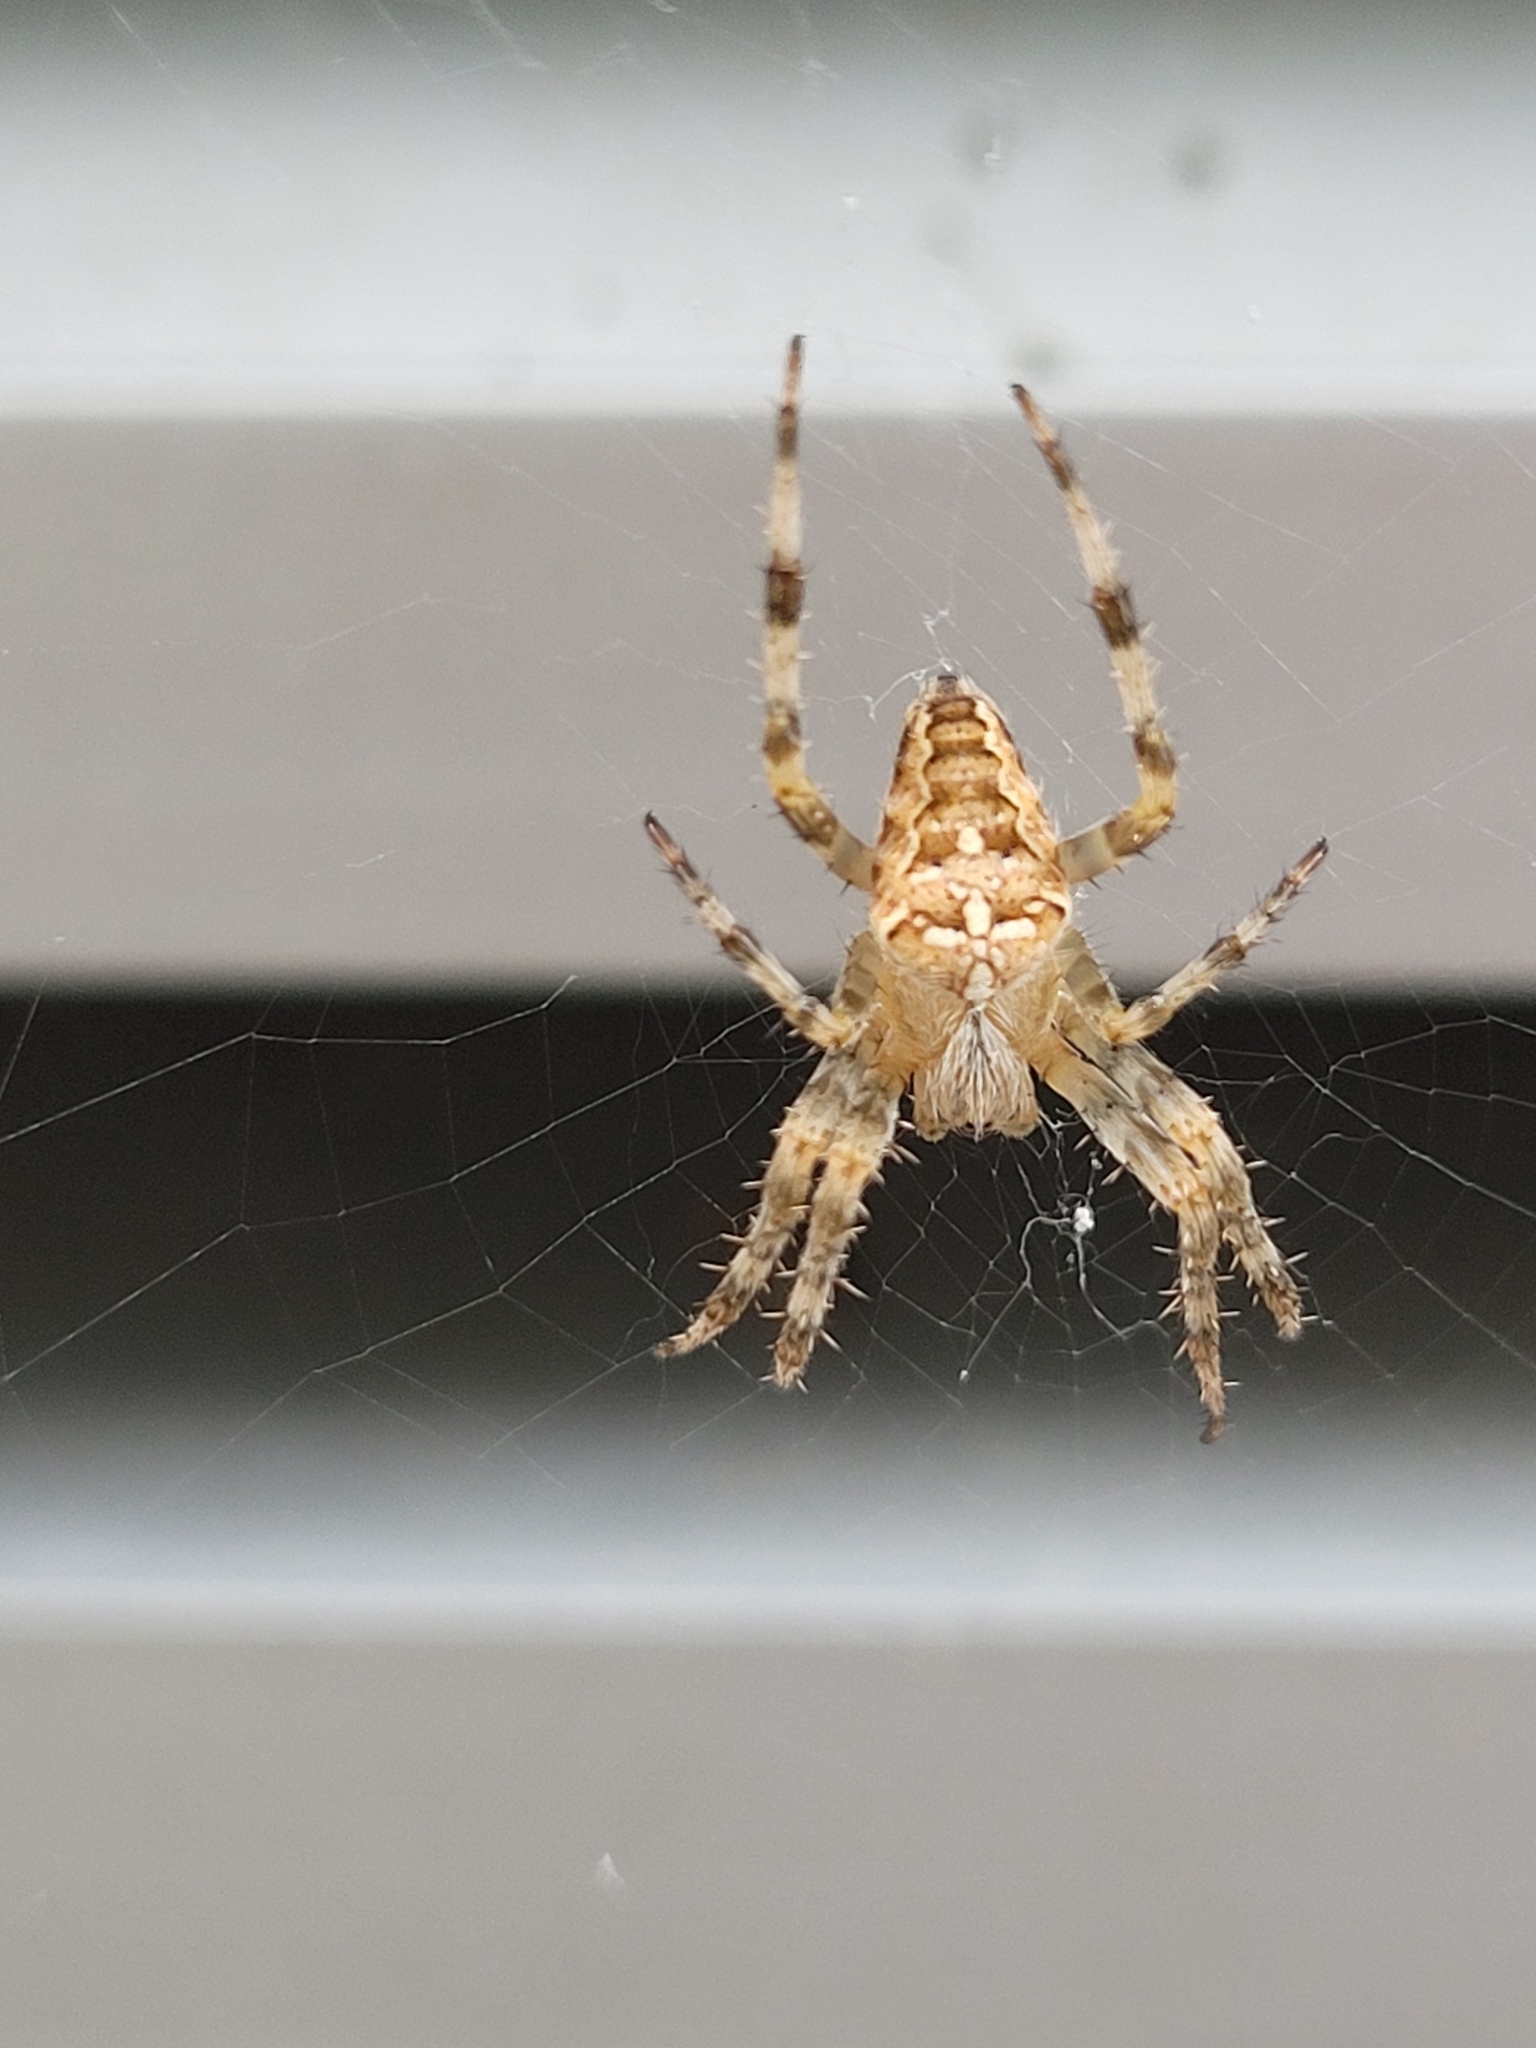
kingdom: Animalia
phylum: Arthropoda
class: Arachnida
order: Araneae
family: Araneidae
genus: Araneus
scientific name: Araneus diadematus
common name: Cross orbweaver
